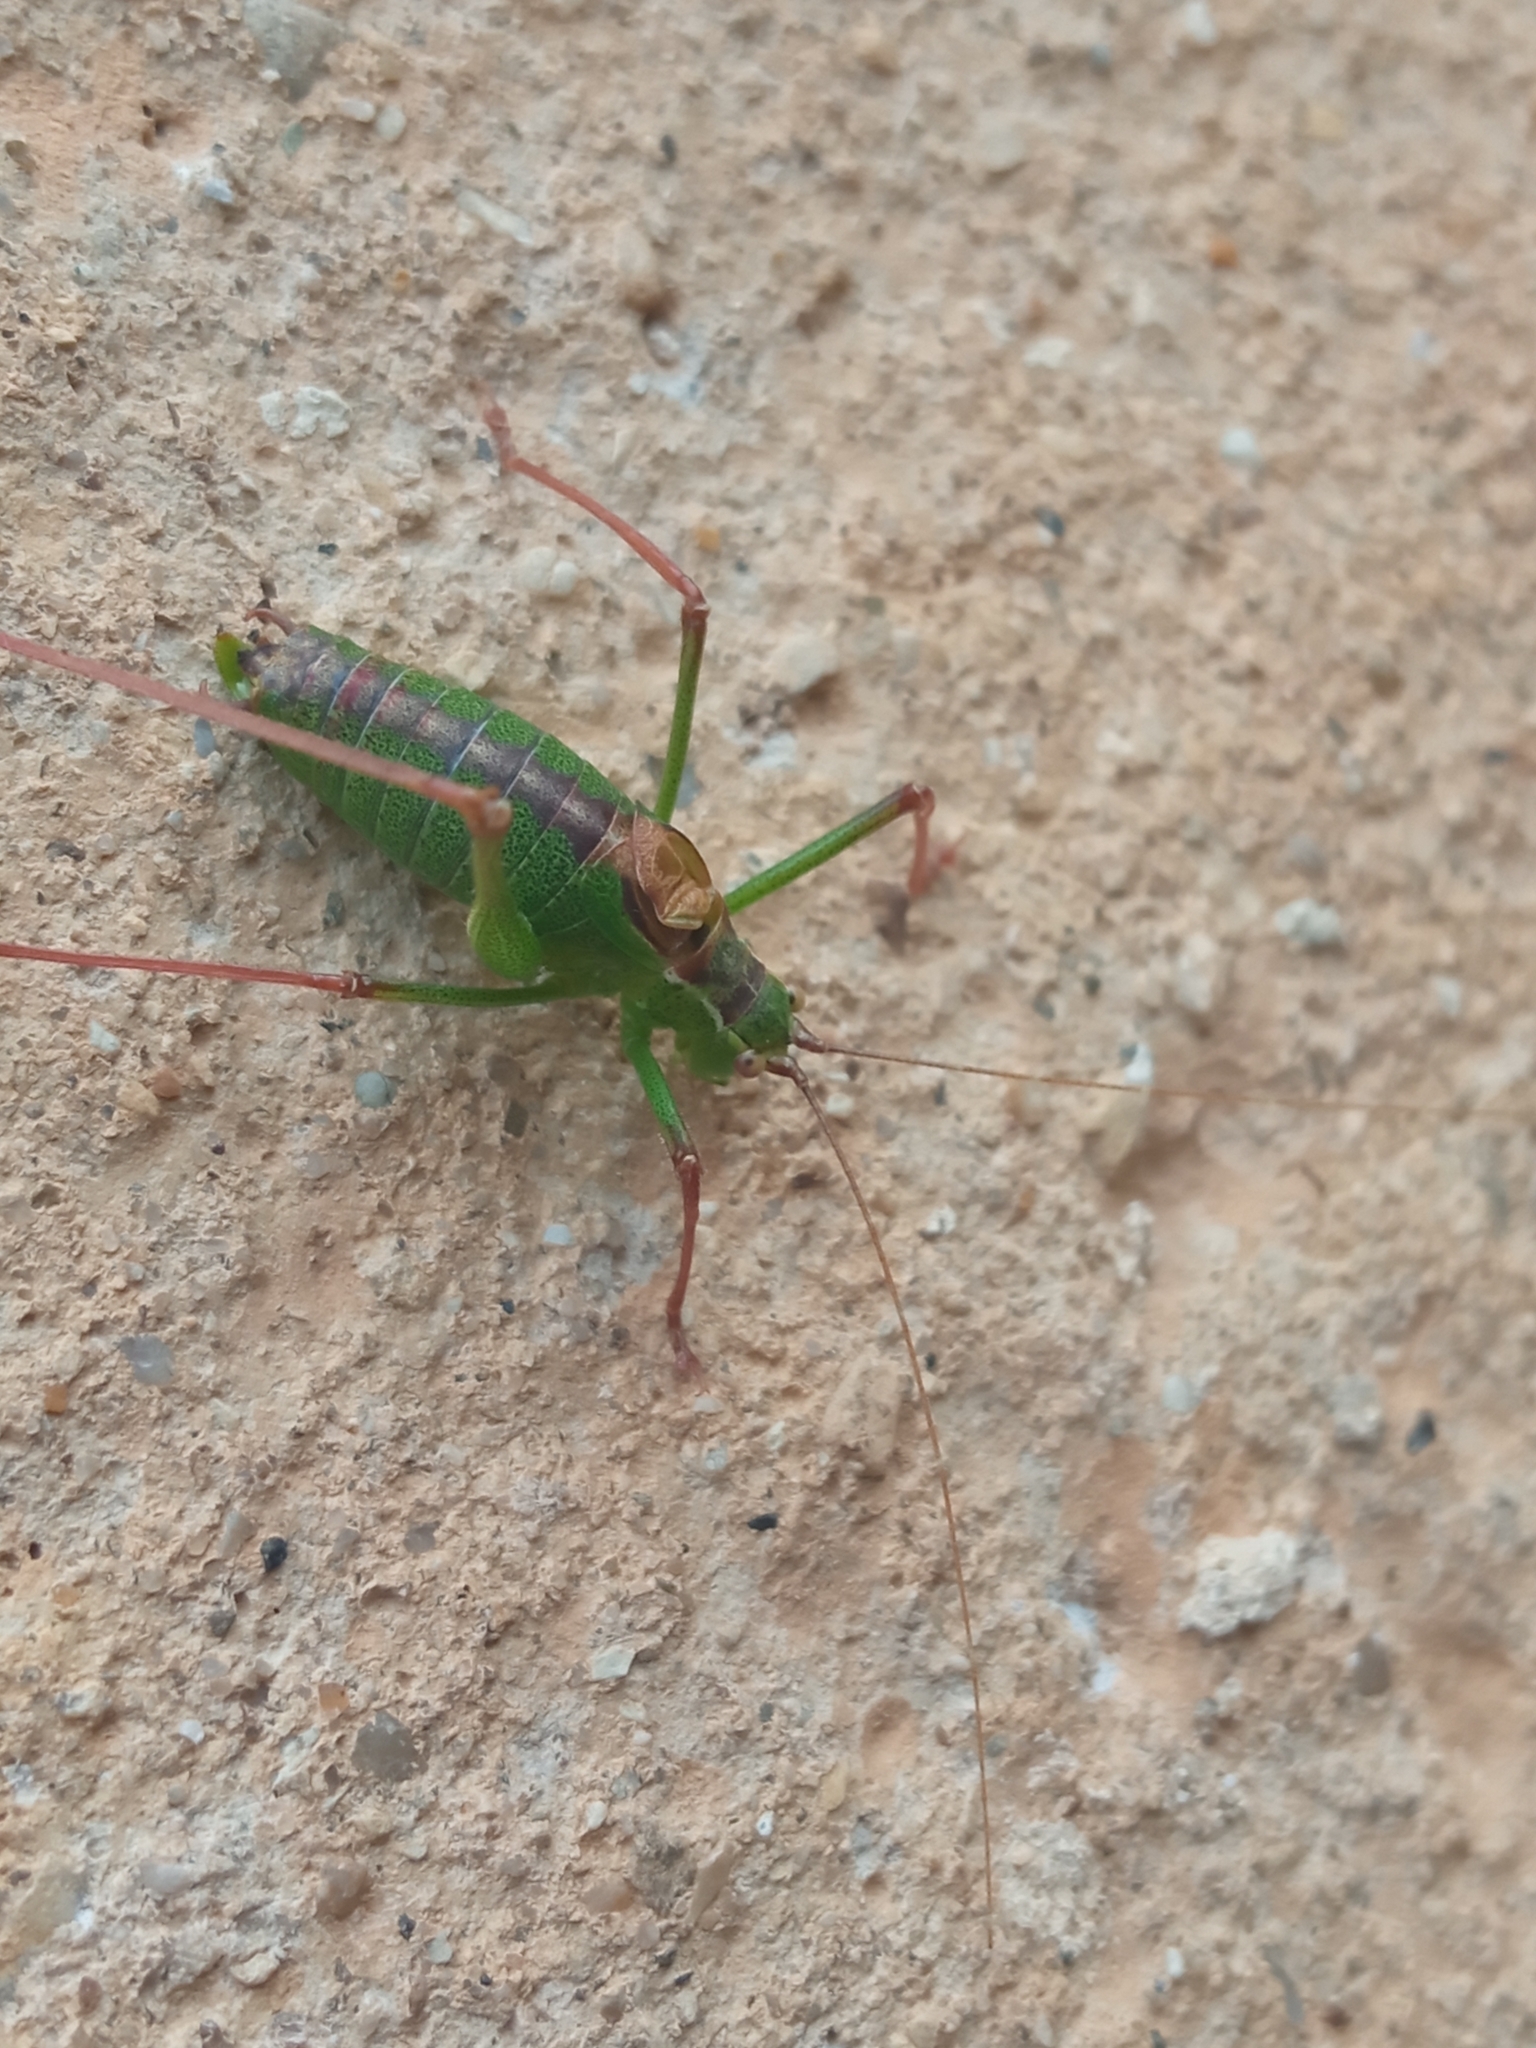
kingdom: Animalia
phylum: Arthropoda
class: Insecta
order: Orthoptera
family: Tettigoniidae
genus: Leptophyes
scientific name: Leptophyes punctatissima
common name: Speckled bush-cricket
